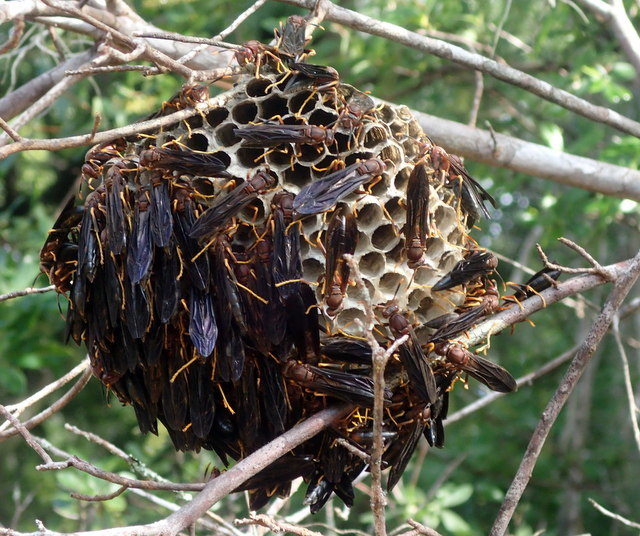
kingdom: Animalia
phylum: Arthropoda
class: Insecta
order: Hymenoptera
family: Eumenidae
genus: Polistes
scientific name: Polistes annularis
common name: Ringed paper wasp
